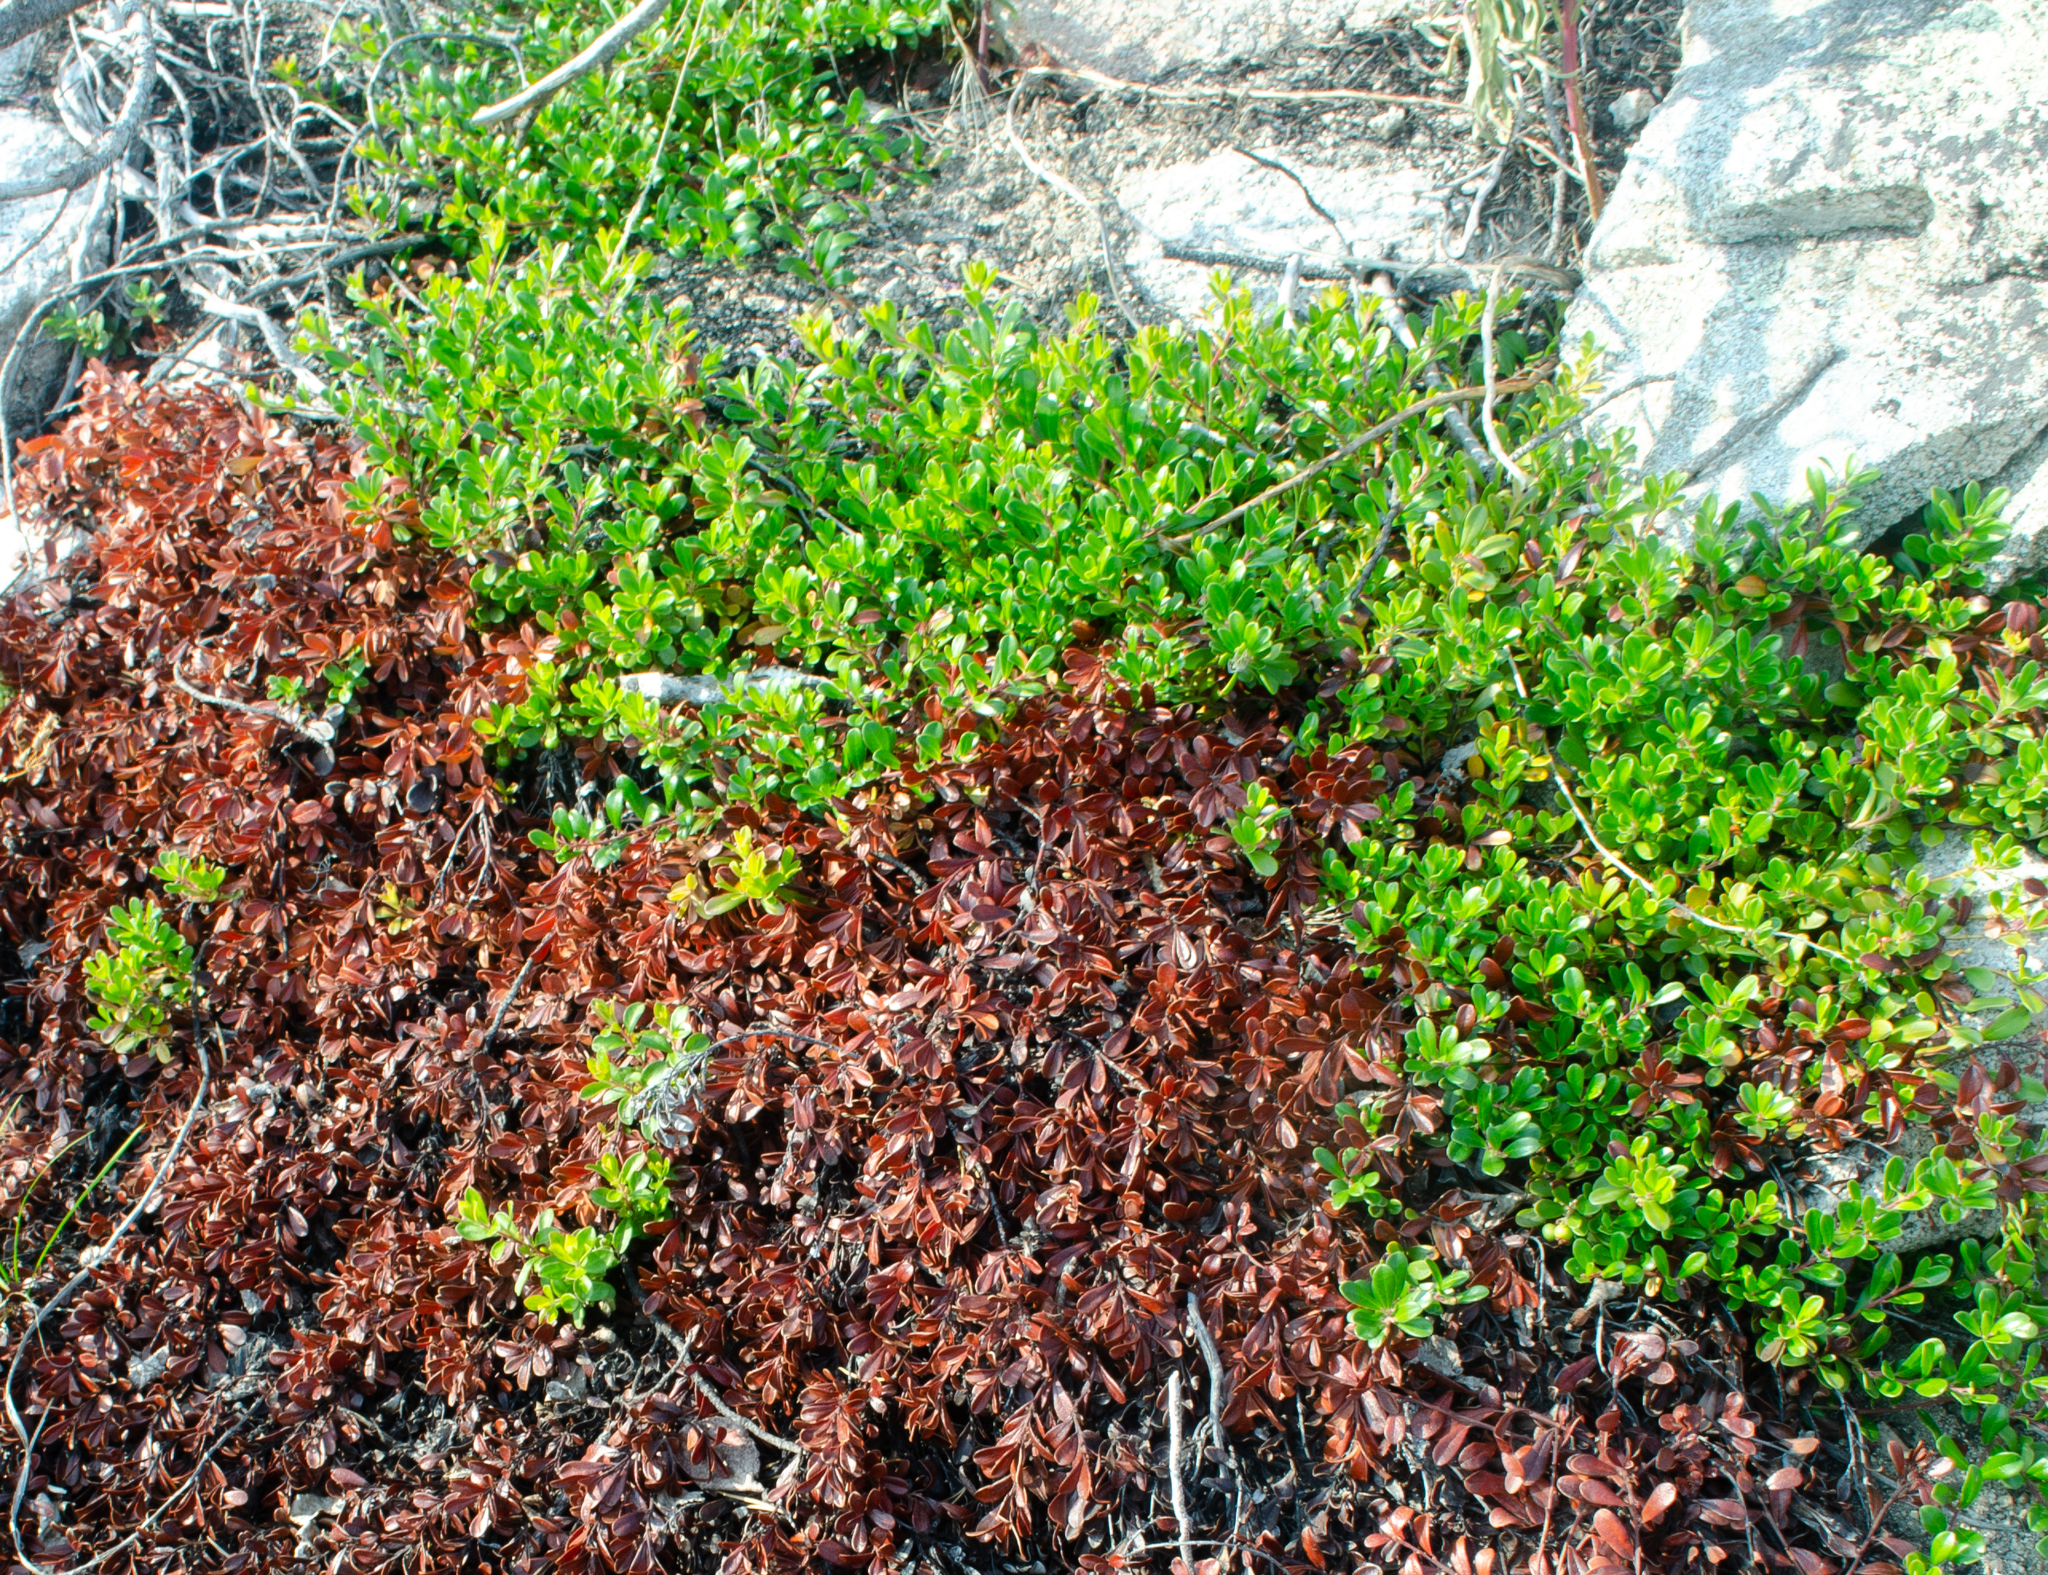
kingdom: Plantae
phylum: Tracheophyta
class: Magnoliopsida
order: Ericales
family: Ericaceae
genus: Arctostaphylos
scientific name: Arctostaphylos uva-ursi
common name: Bearberry
